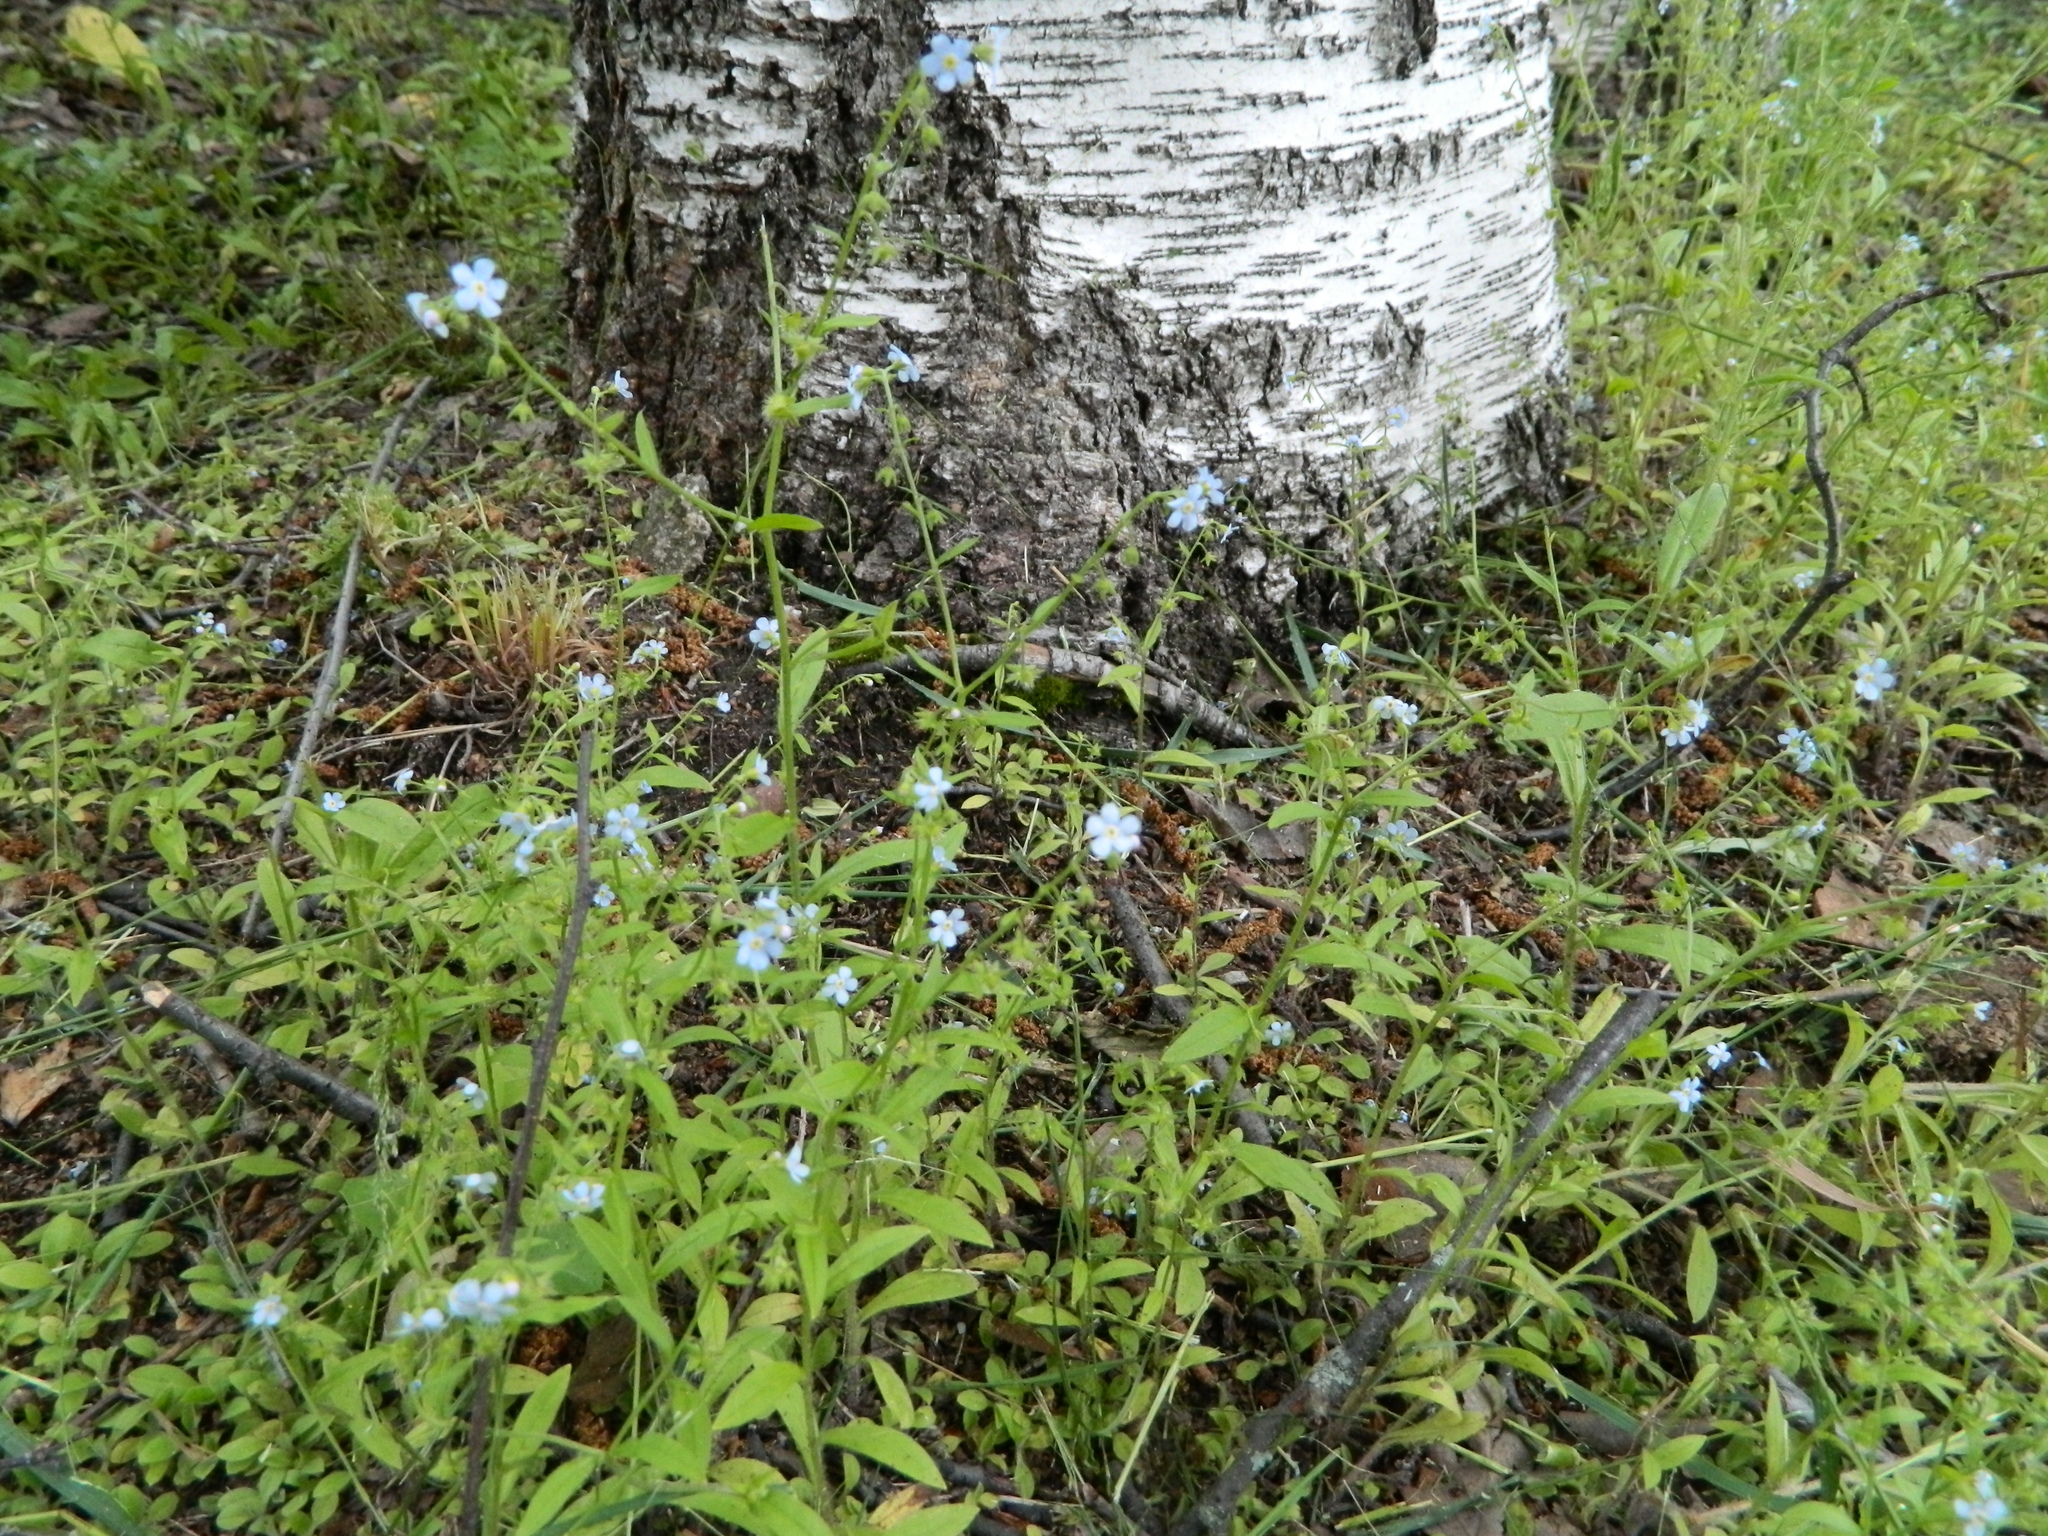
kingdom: Plantae
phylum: Tracheophyta
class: Magnoliopsida
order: Boraginales
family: Boraginaceae
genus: Hackelia
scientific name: Hackelia deflexa
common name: Nodding stickseed
